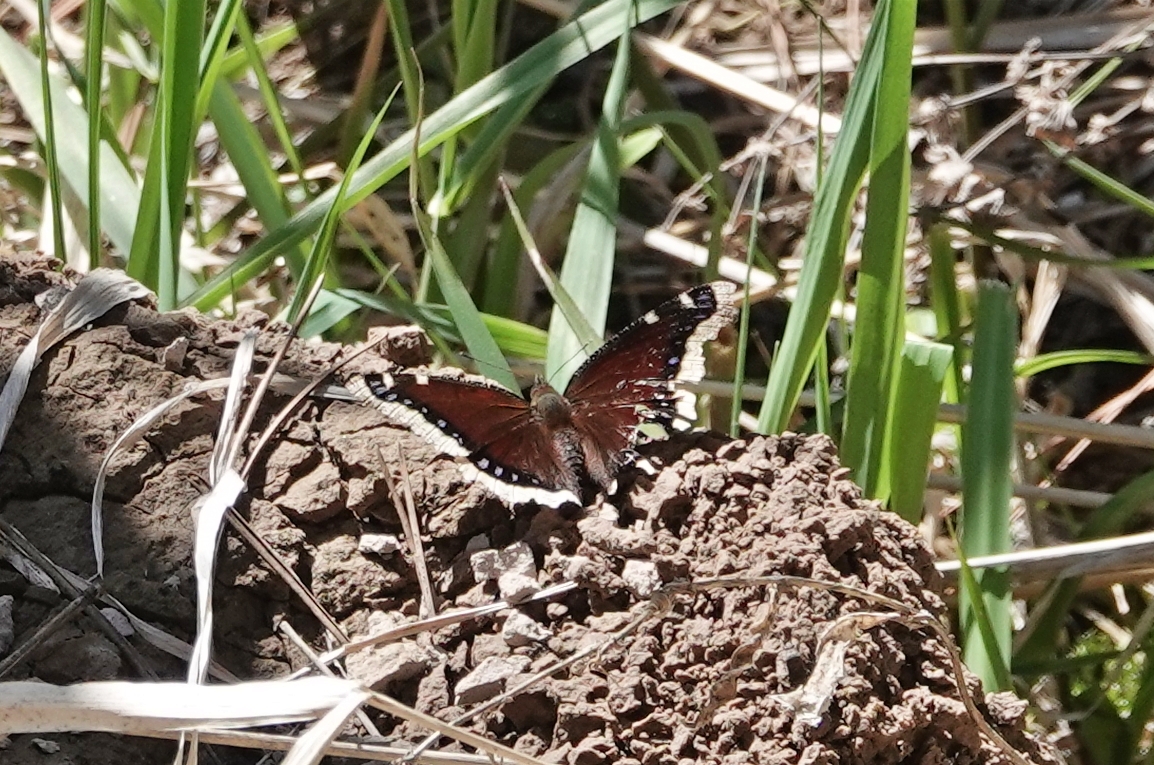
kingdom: Animalia
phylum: Arthropoda
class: Insecta
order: Lepidoptera
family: Nymphalidae
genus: Nymphalis
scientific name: Nymphalis antiopa
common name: Camberwell beauty
